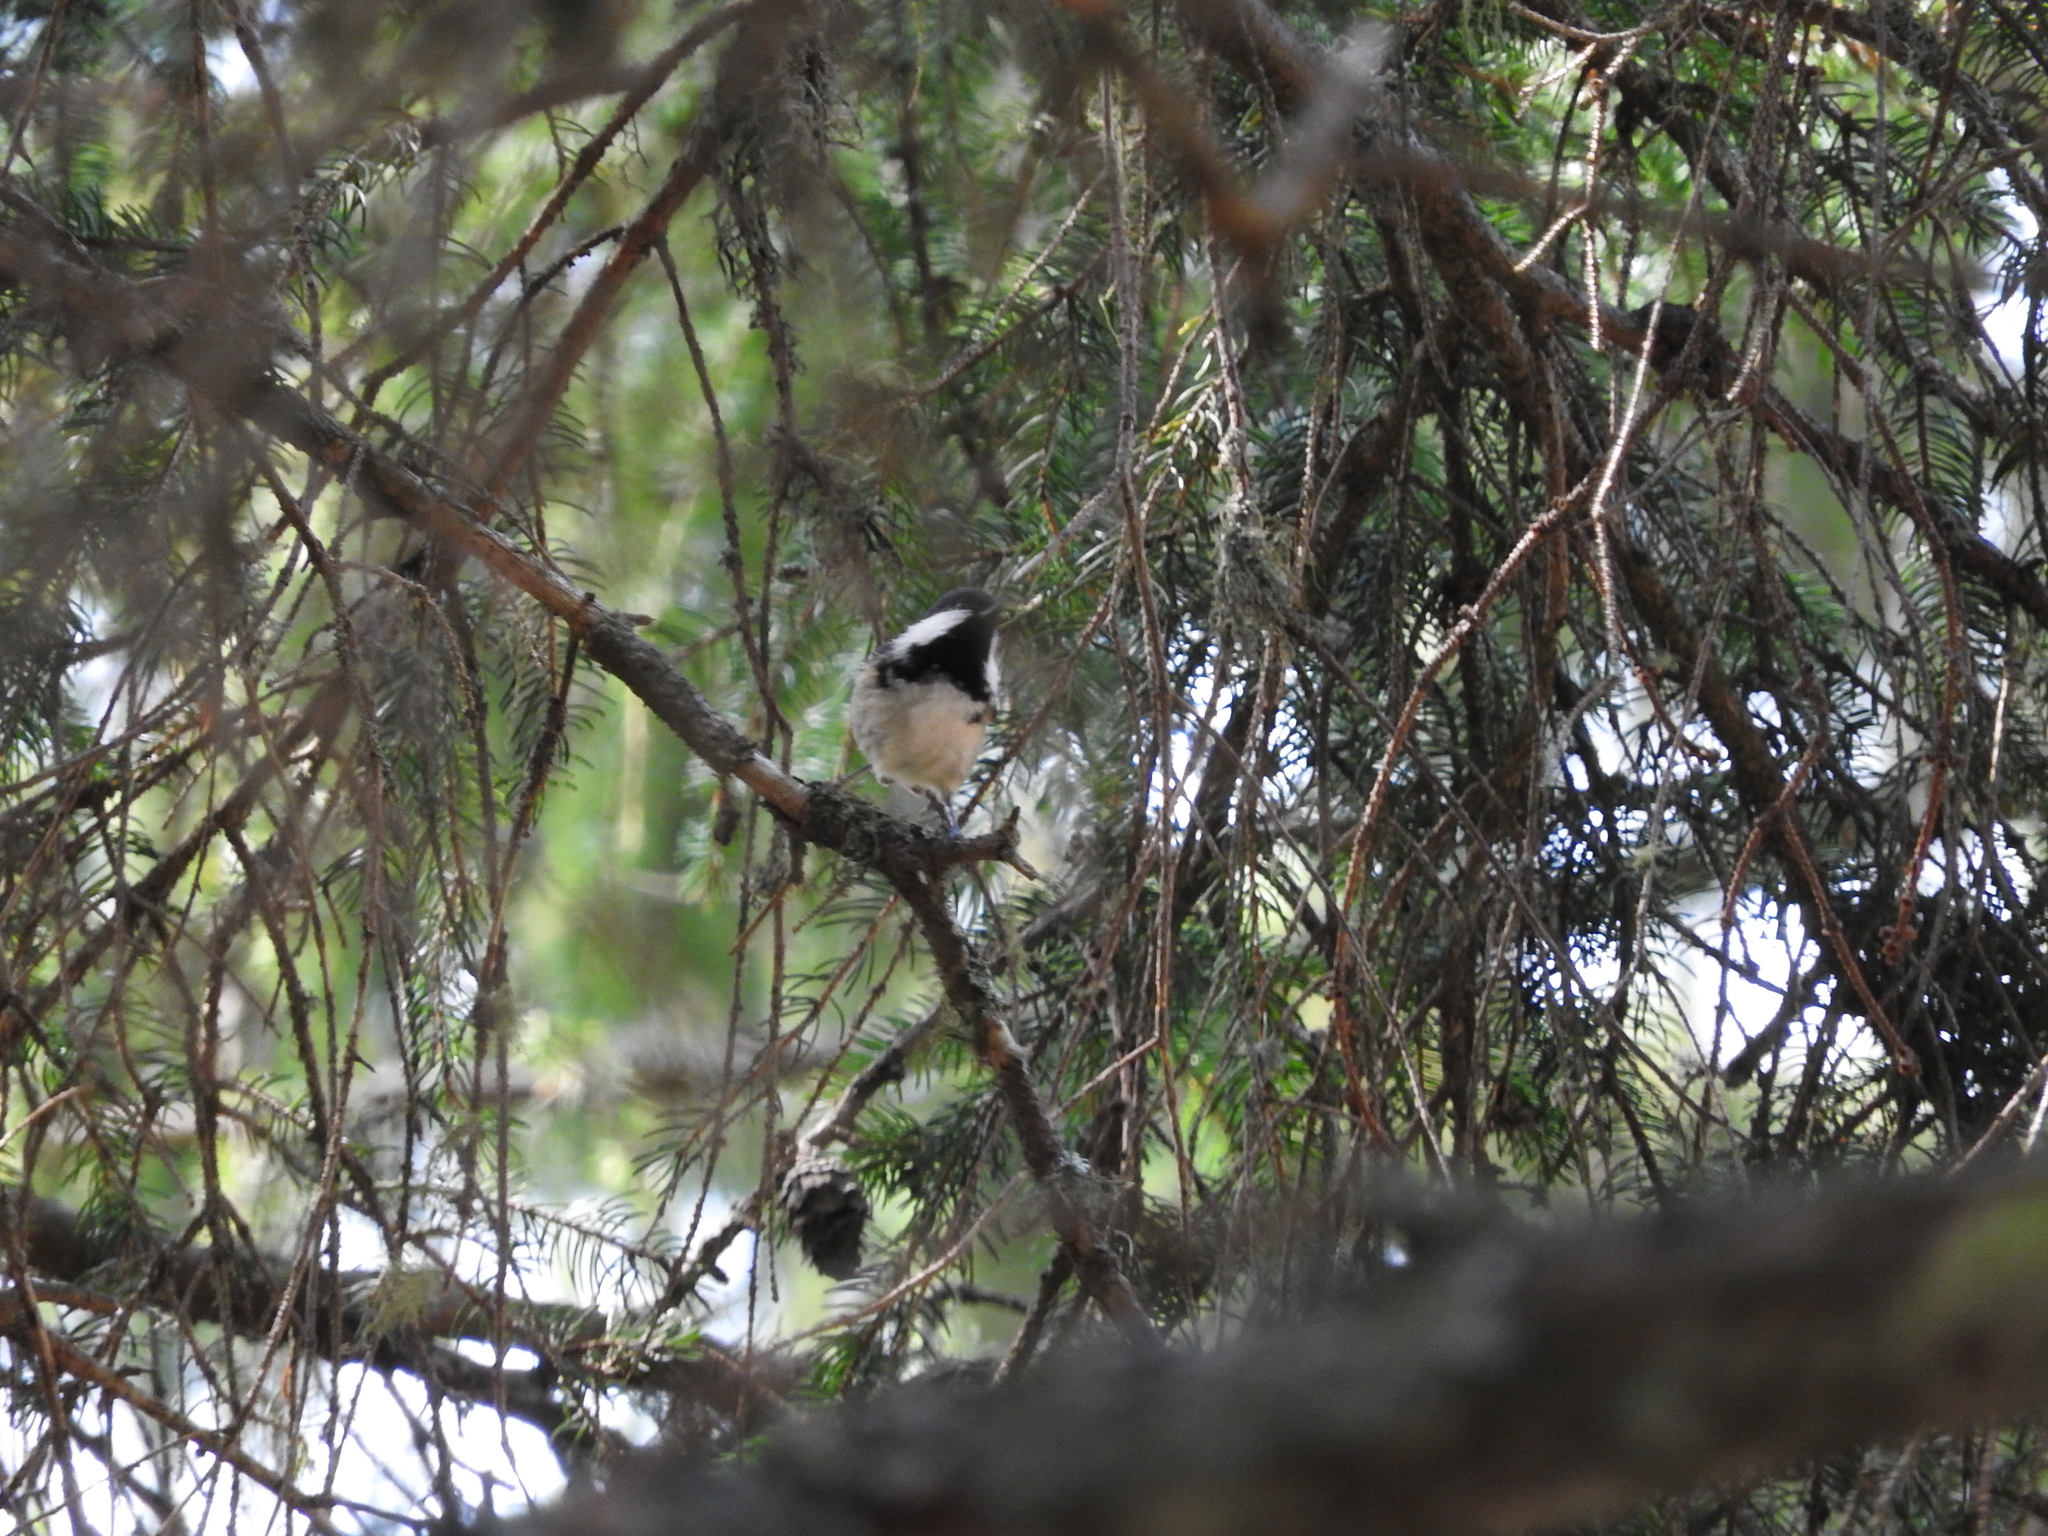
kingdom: Animalia
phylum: Chordata
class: Aves
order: Passeriformes
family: Paridae
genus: Periparus
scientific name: Periparus ater
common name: Coal tit
